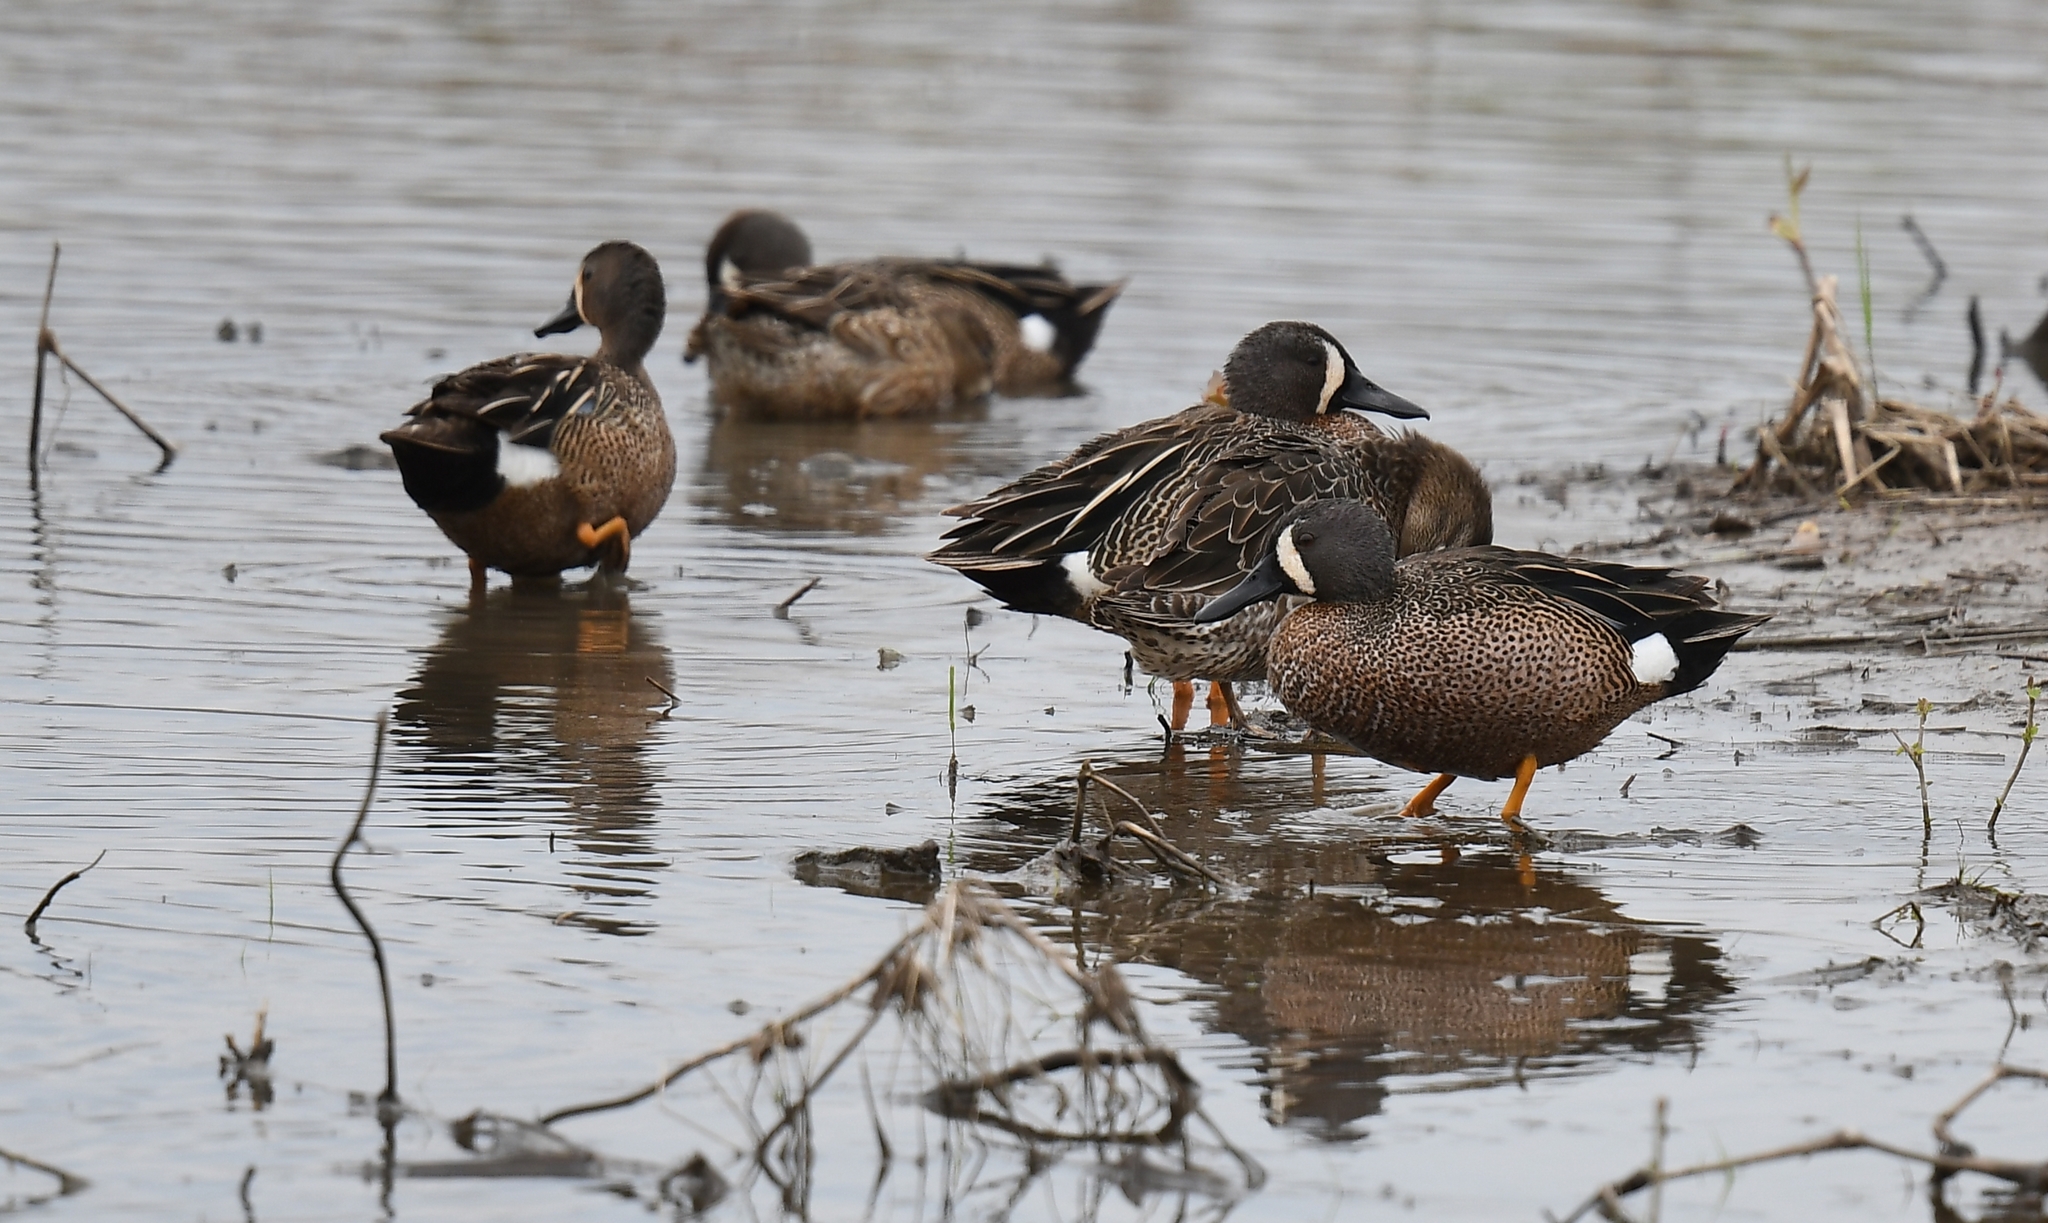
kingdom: Animalia
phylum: Chordata
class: Aves
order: Anseriformes
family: Anatidae
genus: Spatula
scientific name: Spatula discors
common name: Blue-winged teal
